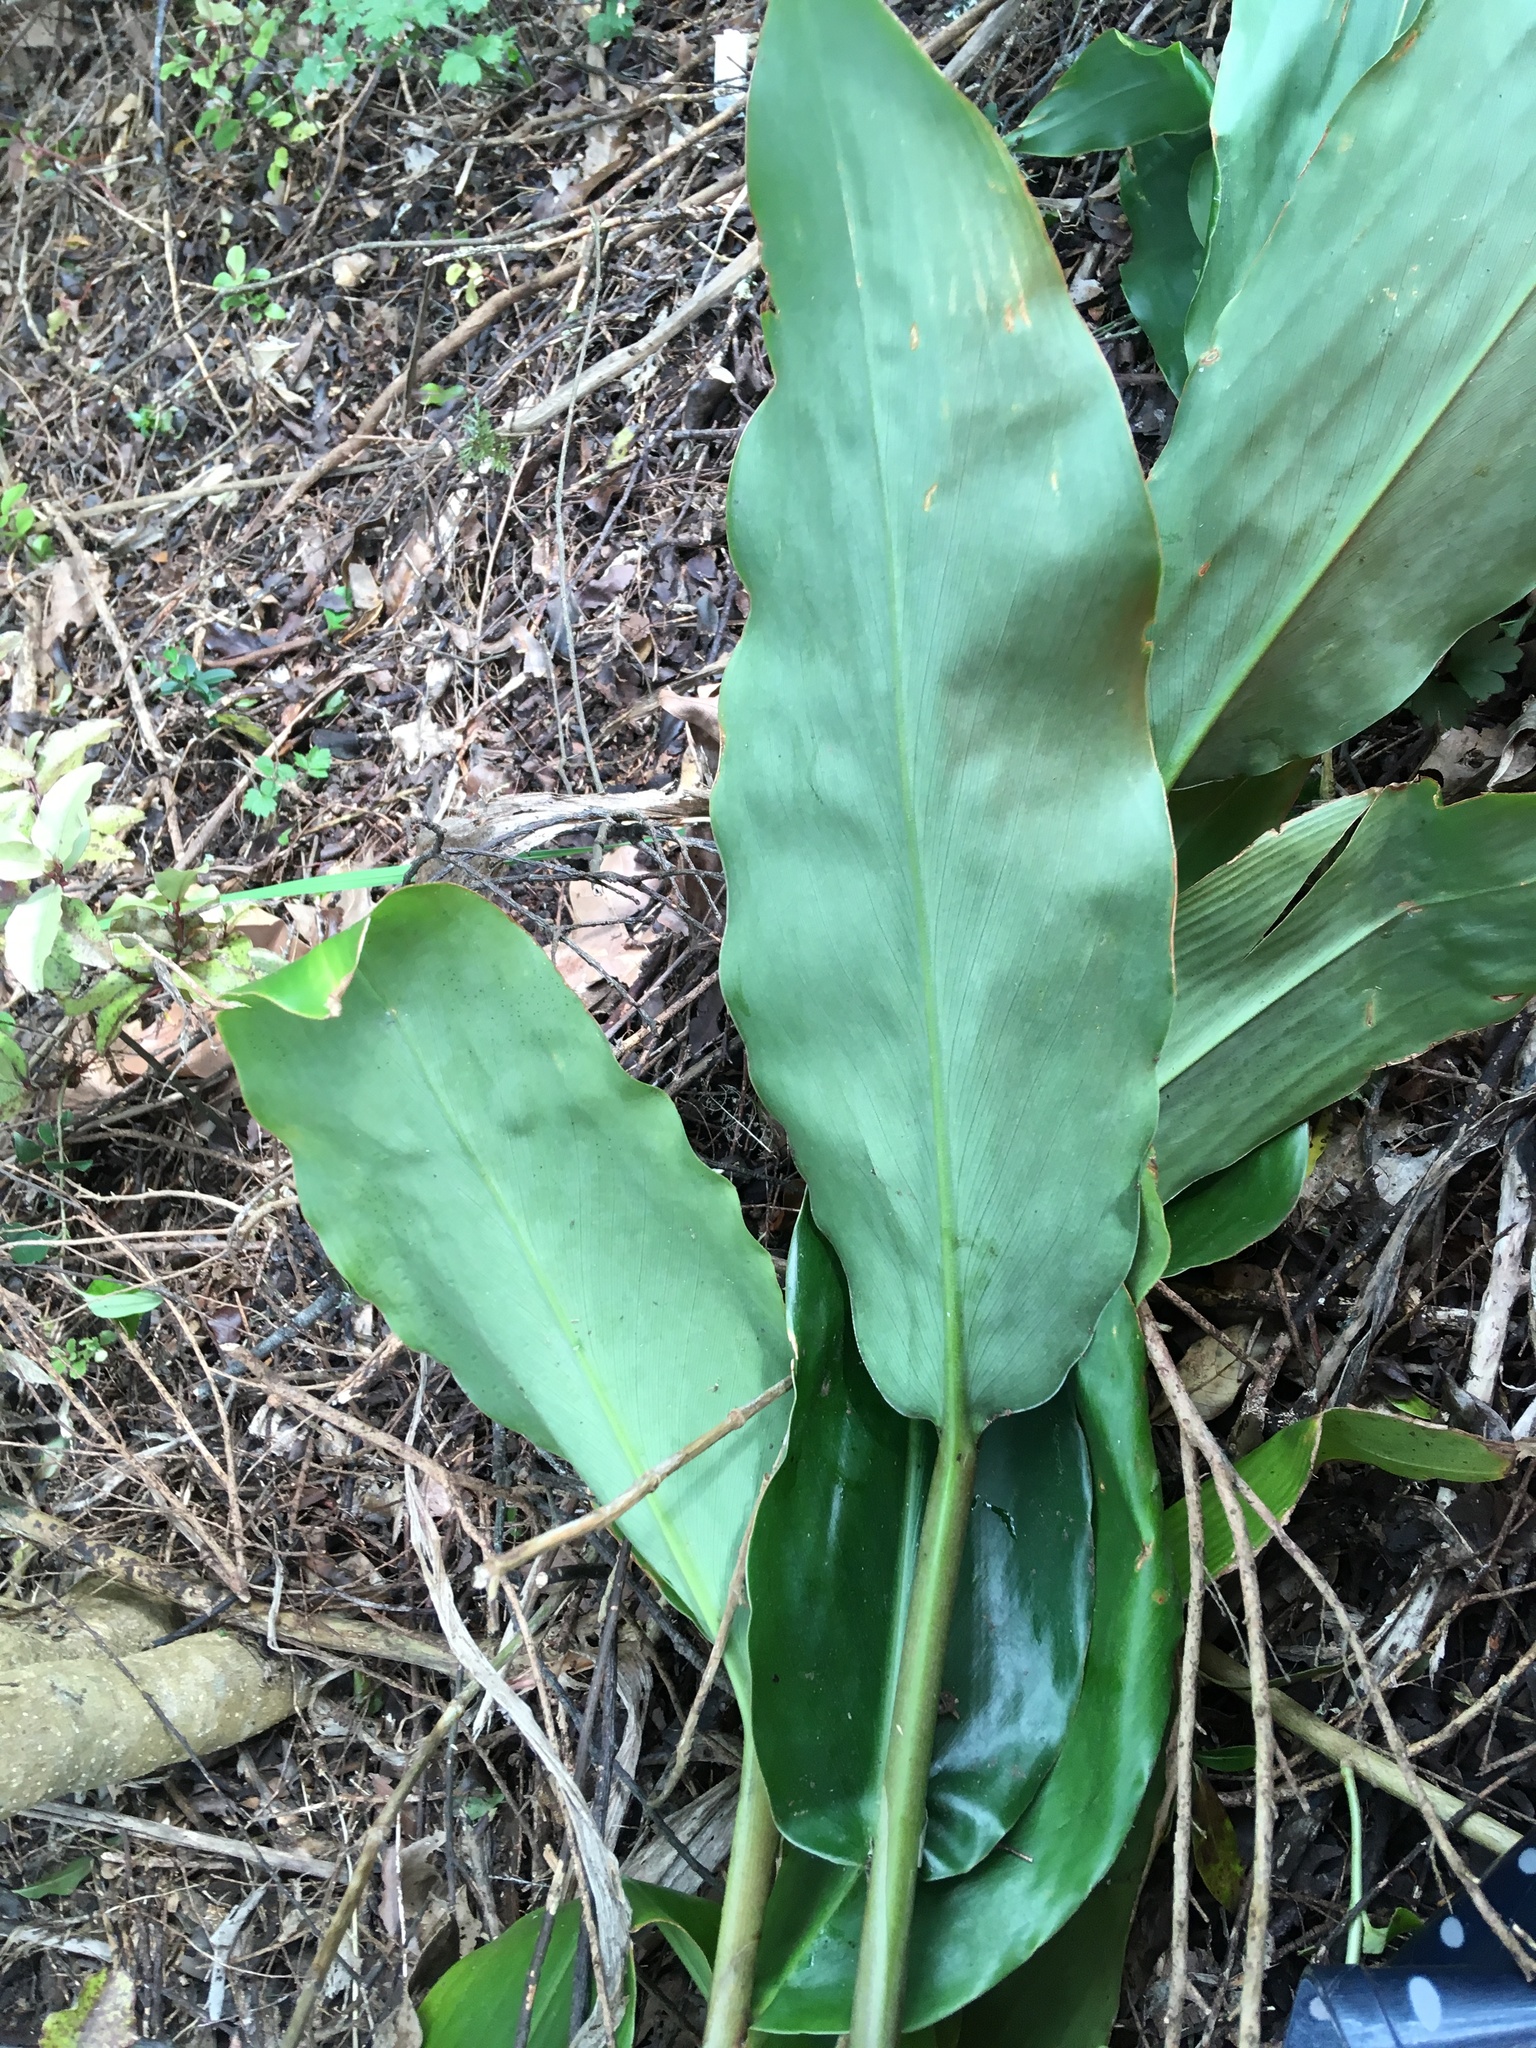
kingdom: Plantae
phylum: Tracheophyta
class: Liliopsida
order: Zingiberales
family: Zingiberaceae
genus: Hedychium
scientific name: Hedychium gardnerianum
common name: Himalayan ginger
